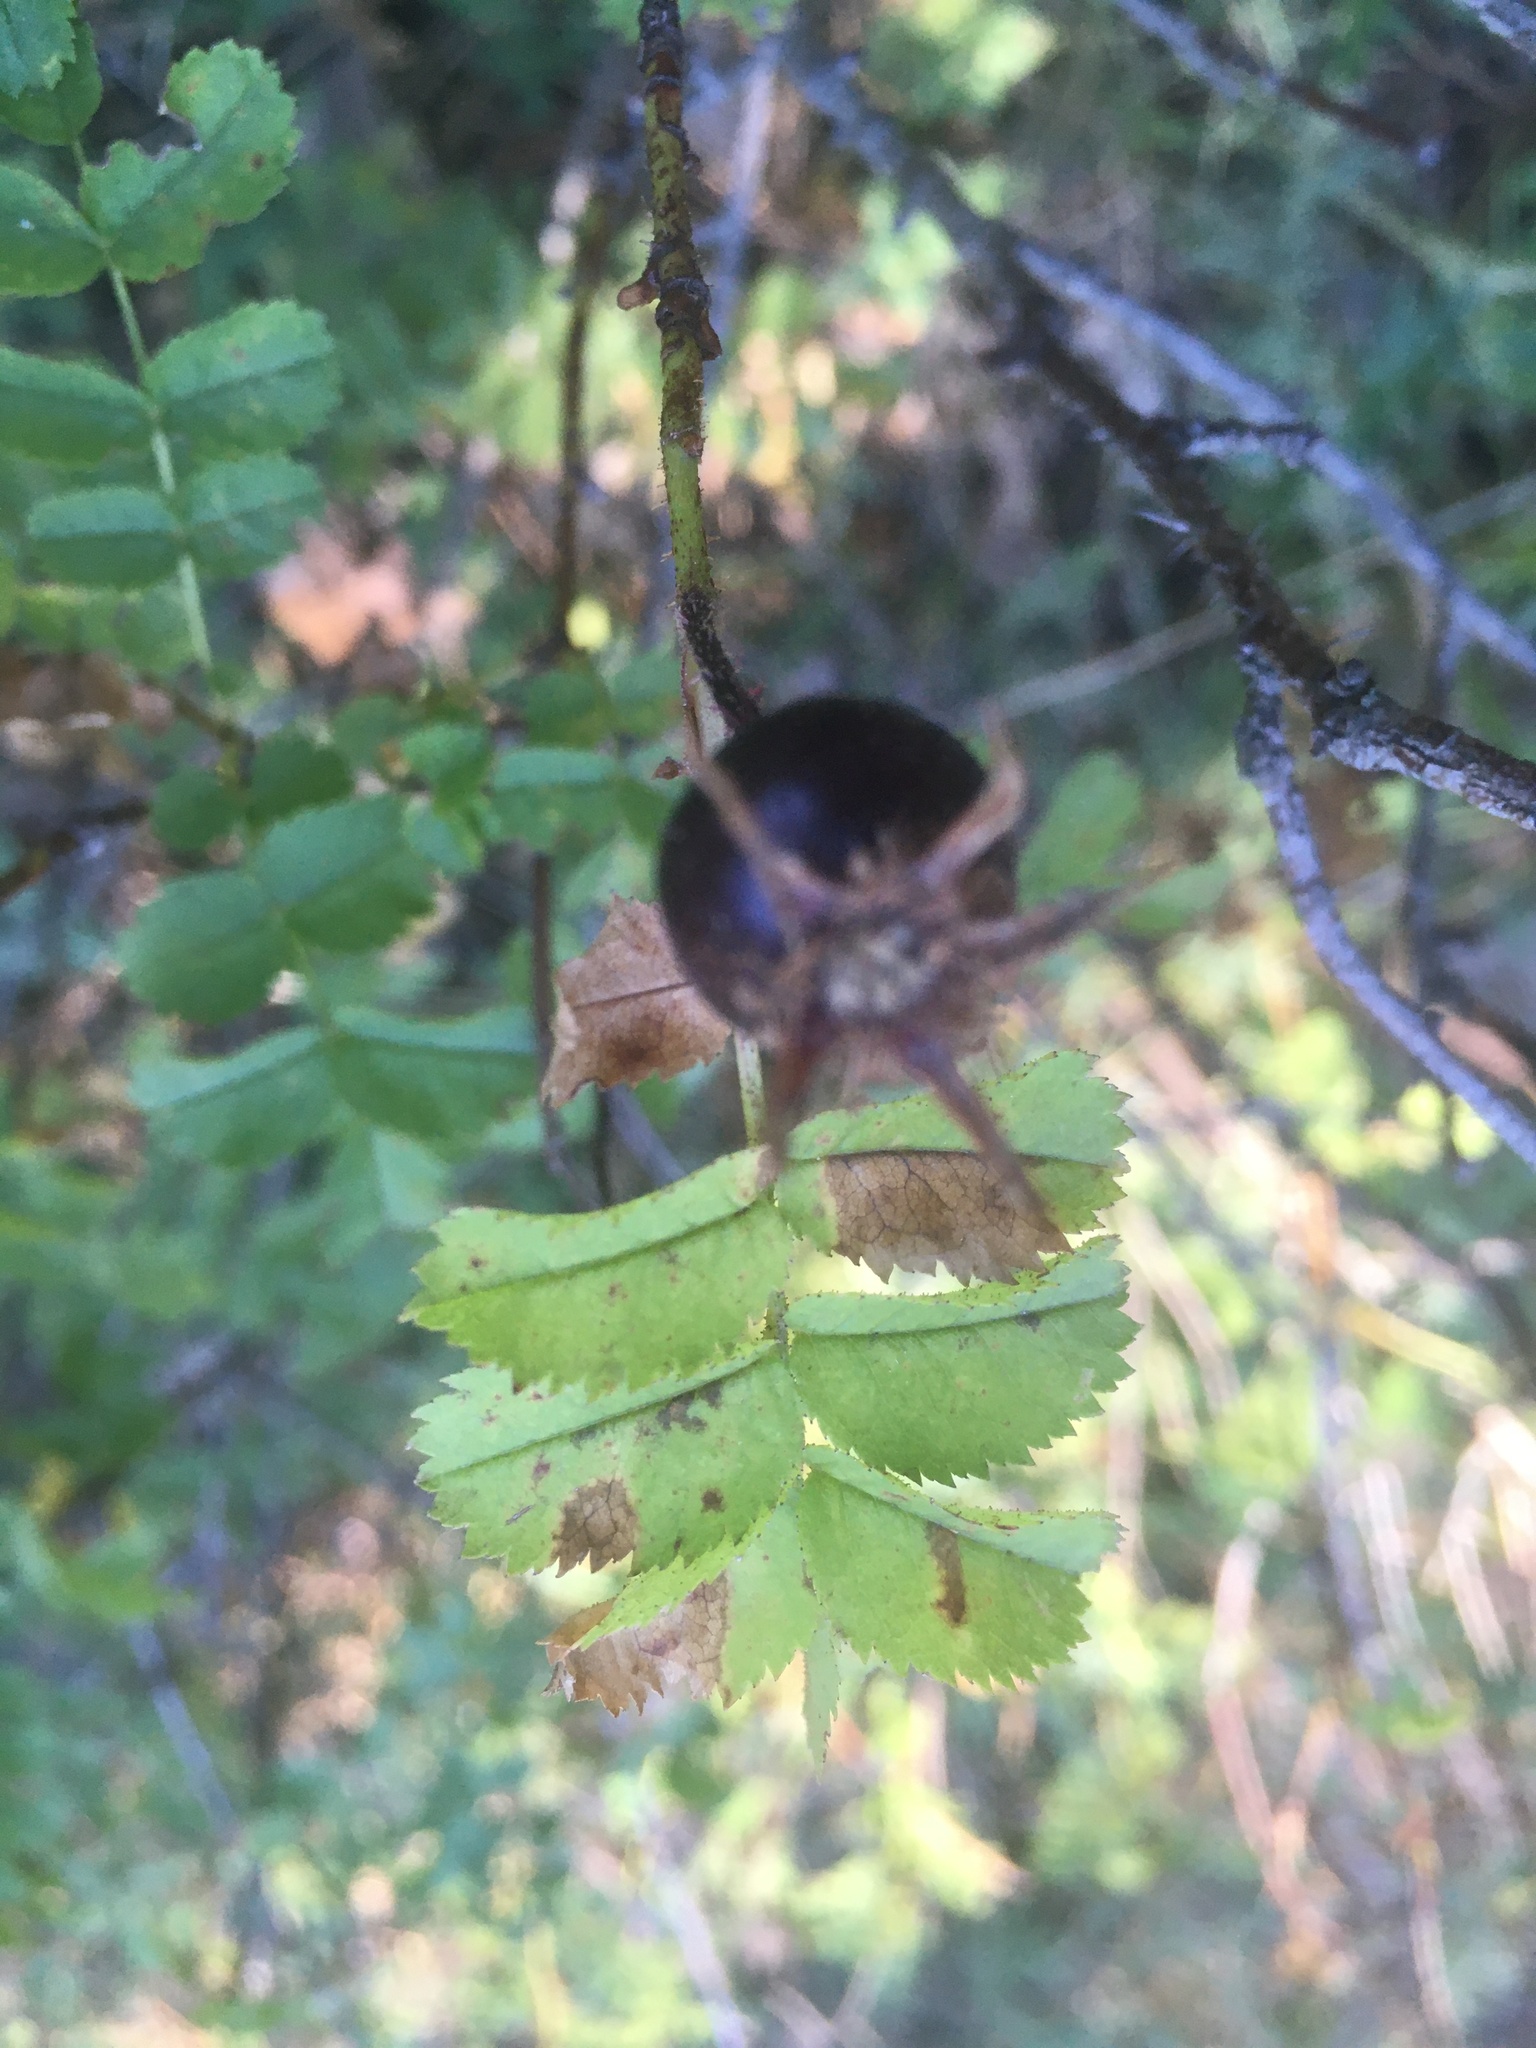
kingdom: Plantae
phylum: Tracheophyta
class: Magnoliopsida
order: Rosales
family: Rosaceae
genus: Rosa
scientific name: Rosa spinosissima
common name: Burnet rose
